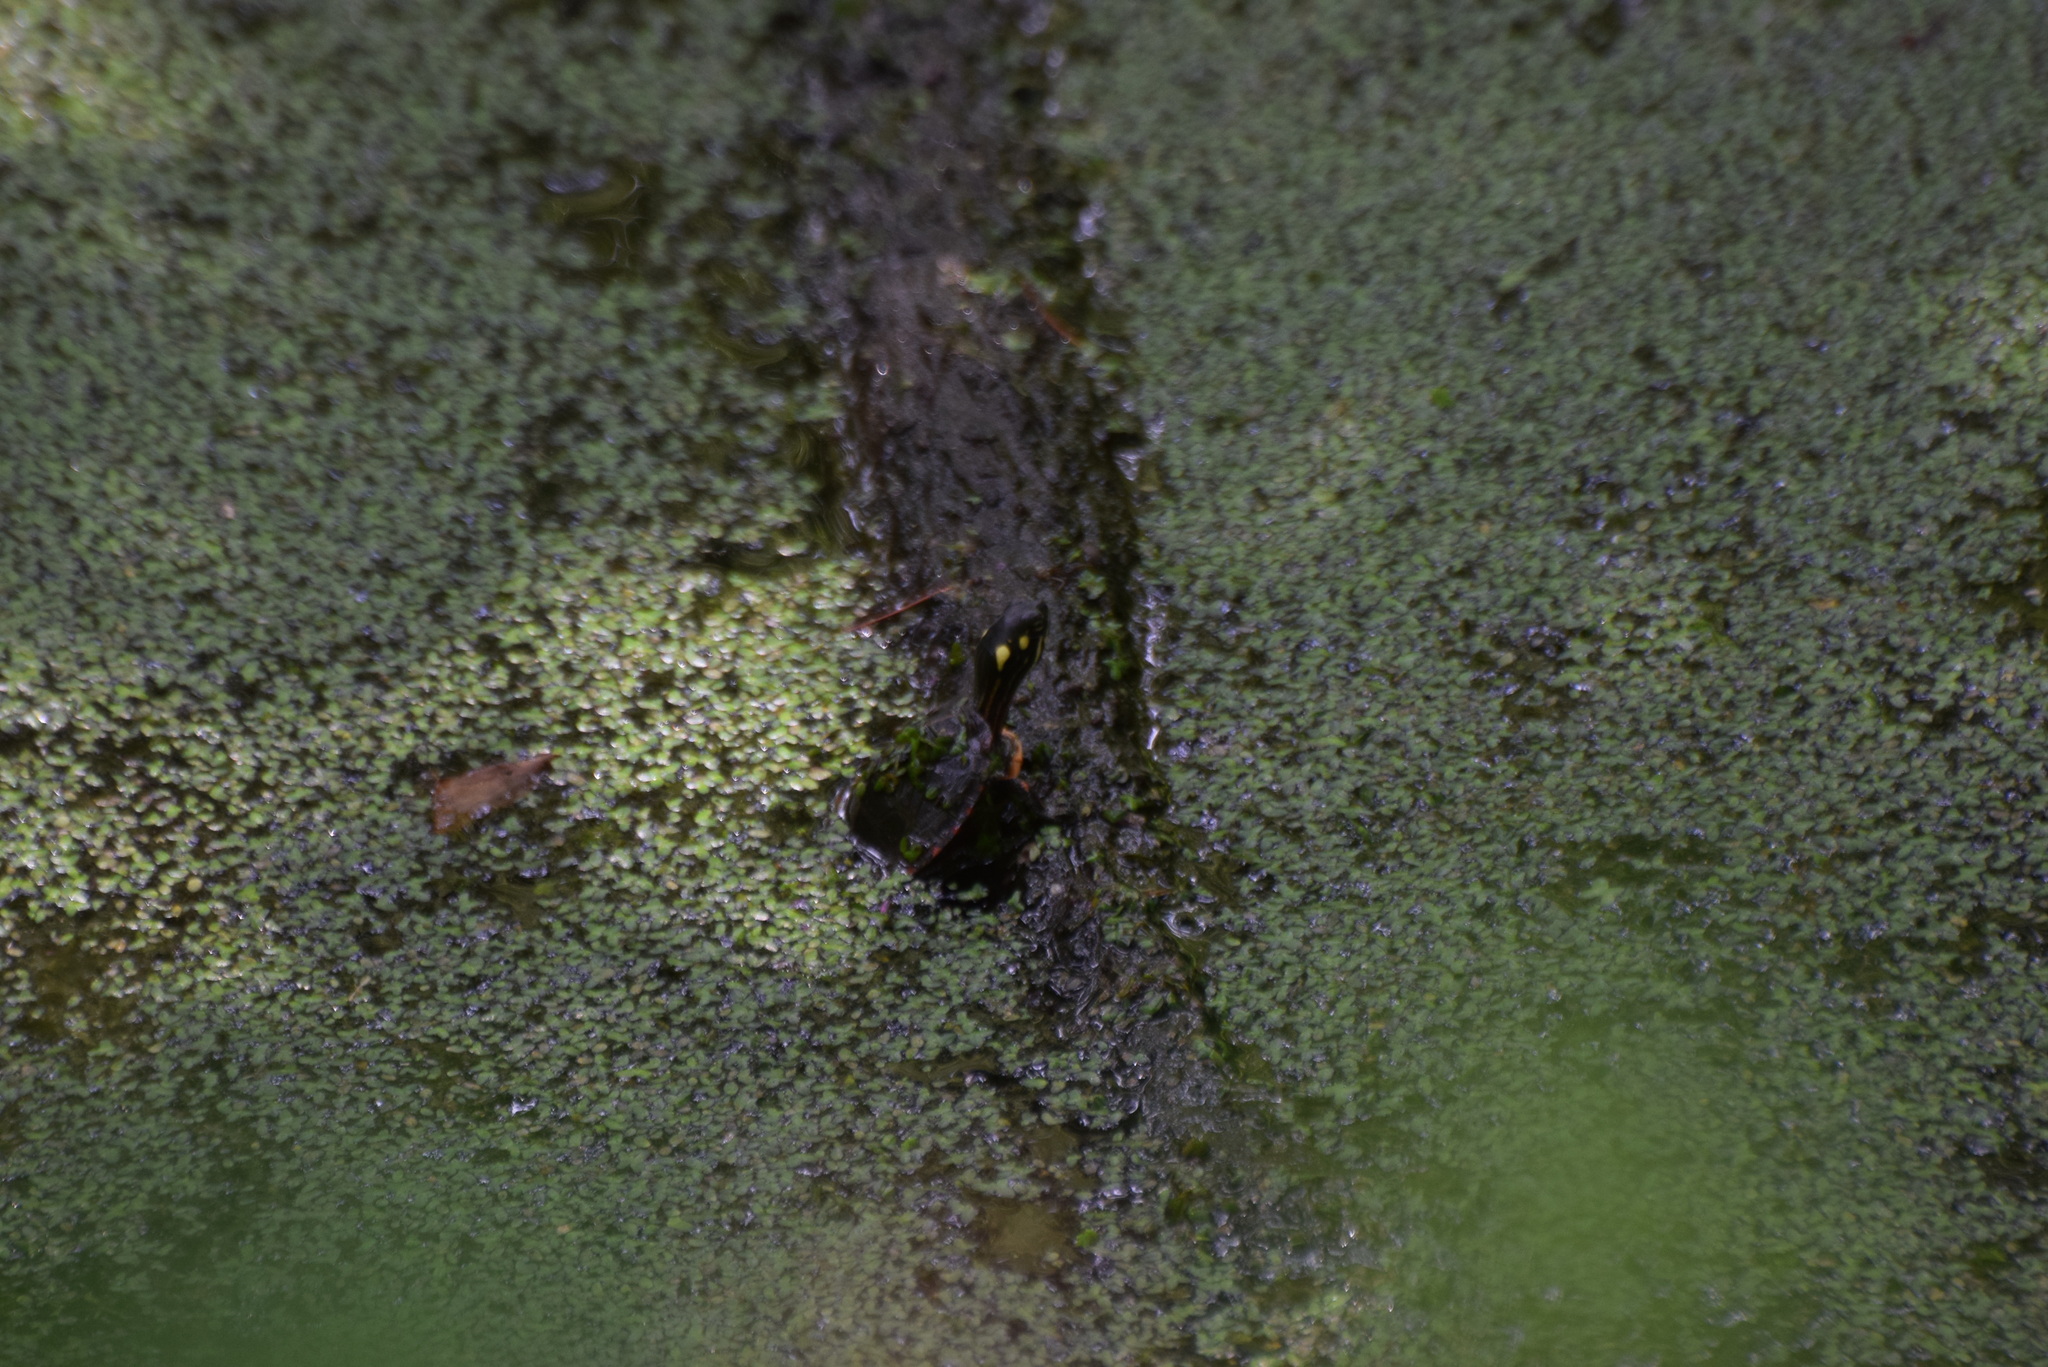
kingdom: Animalia
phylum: Chordata
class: Testudines
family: Emydidae
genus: Chrysemys
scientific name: Chrysemys picta
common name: Painted turtle
